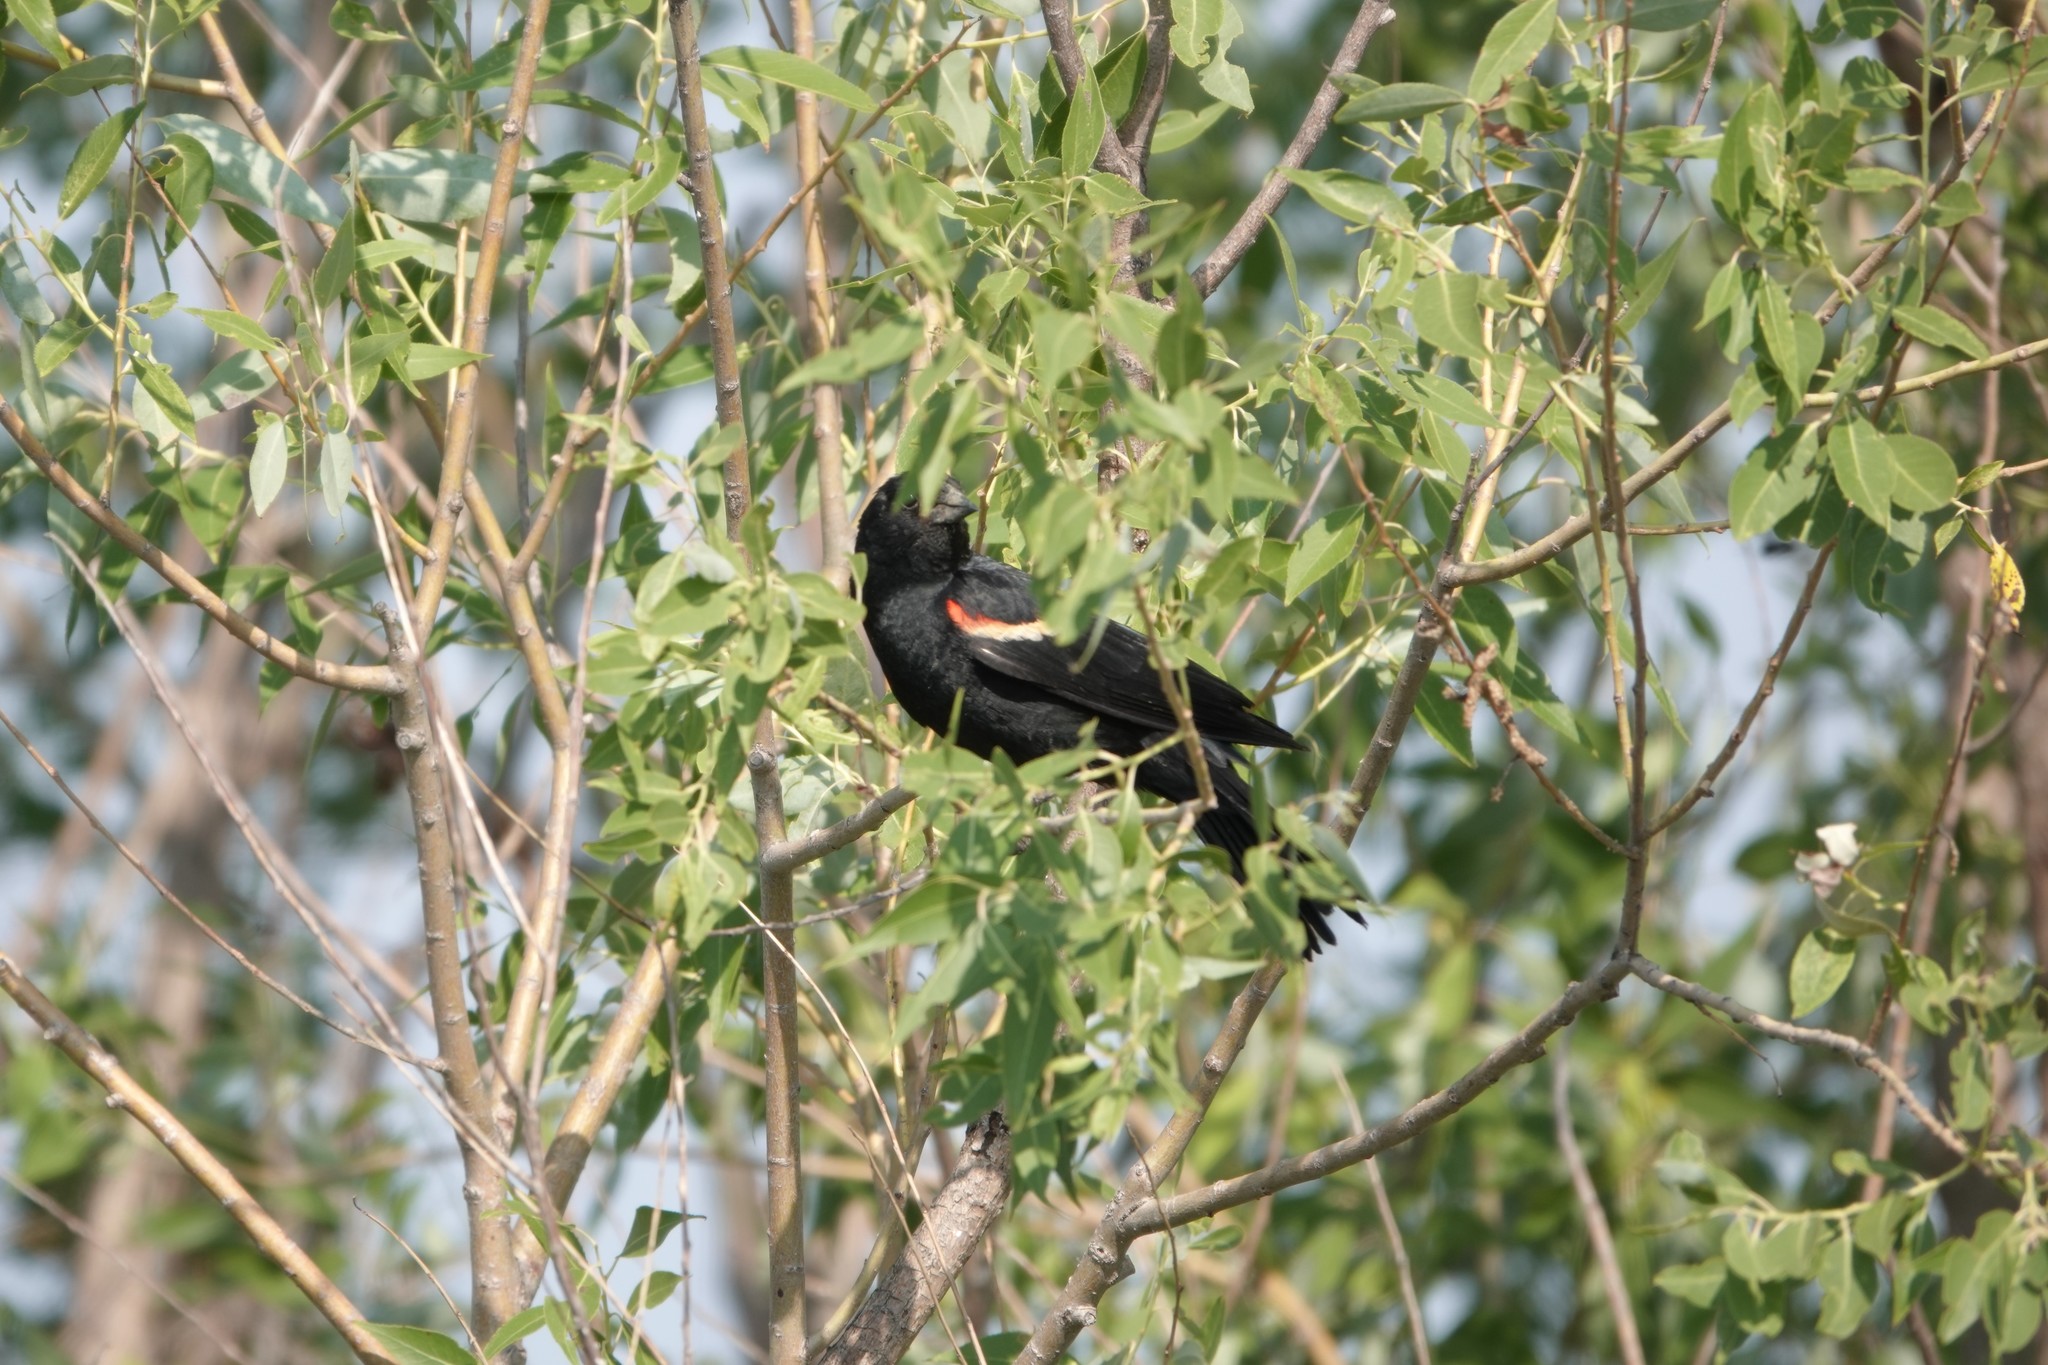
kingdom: Animalia
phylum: Chordata
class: Aves
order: Passeriformes
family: Icteridae
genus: Agelaius
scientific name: Agelaius phoeniceus
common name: Red-winged blackbird
